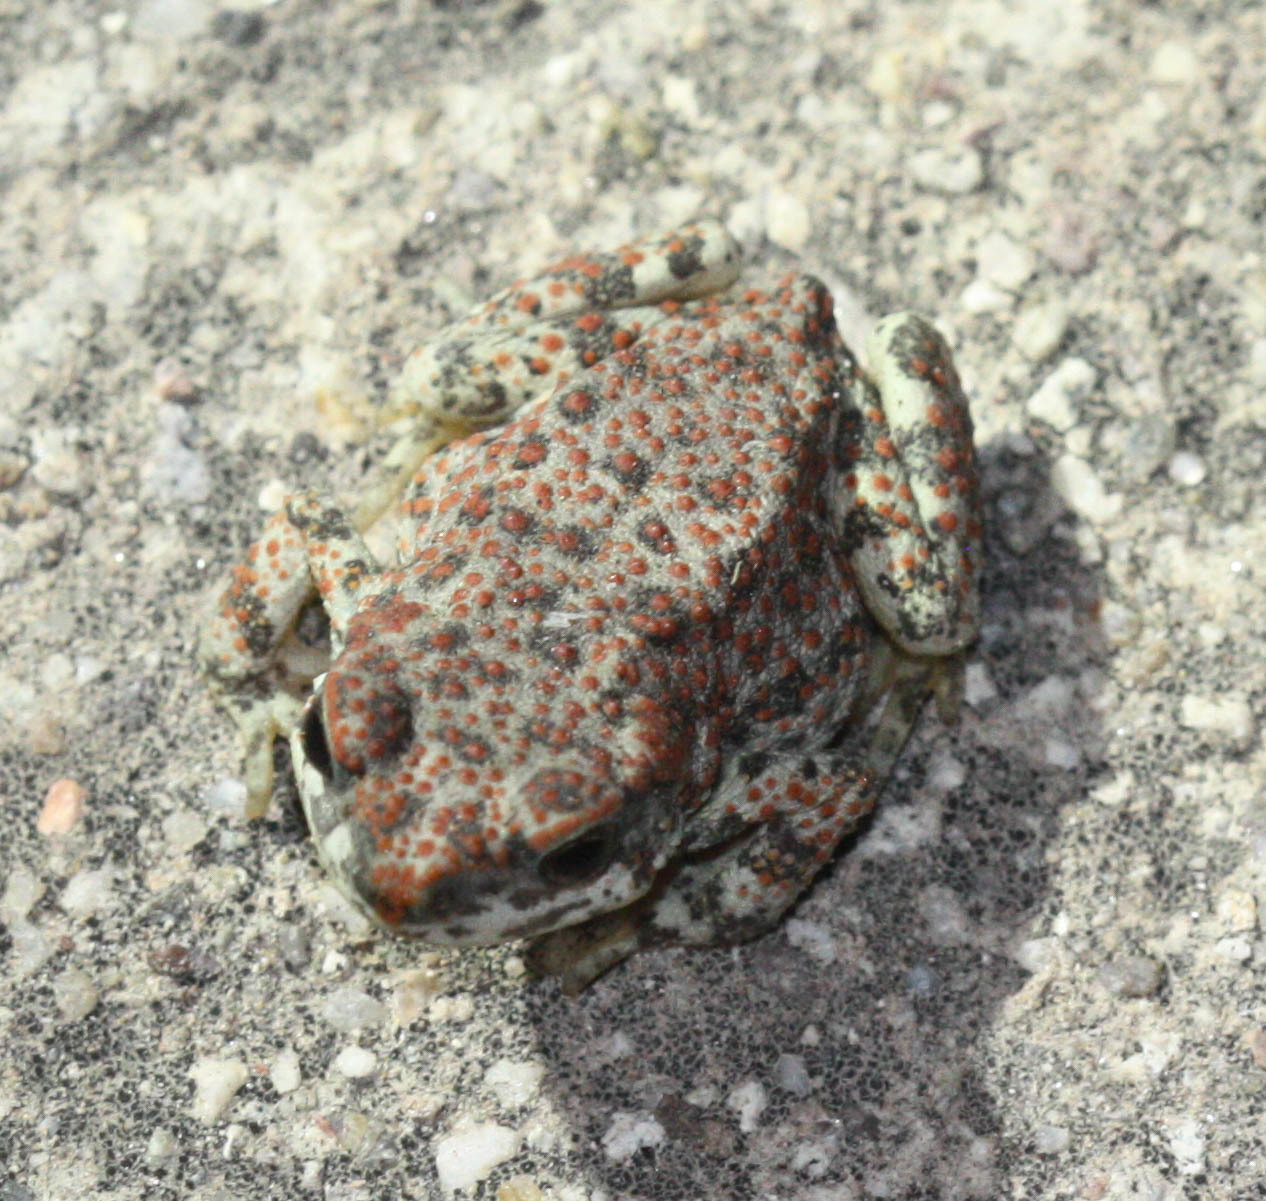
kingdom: Animalia
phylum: Chordata
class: Amphibia
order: Anura
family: Bufonidae
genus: Anaxyrus
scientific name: Anaxyrus punctatus
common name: Red-spotted toad
